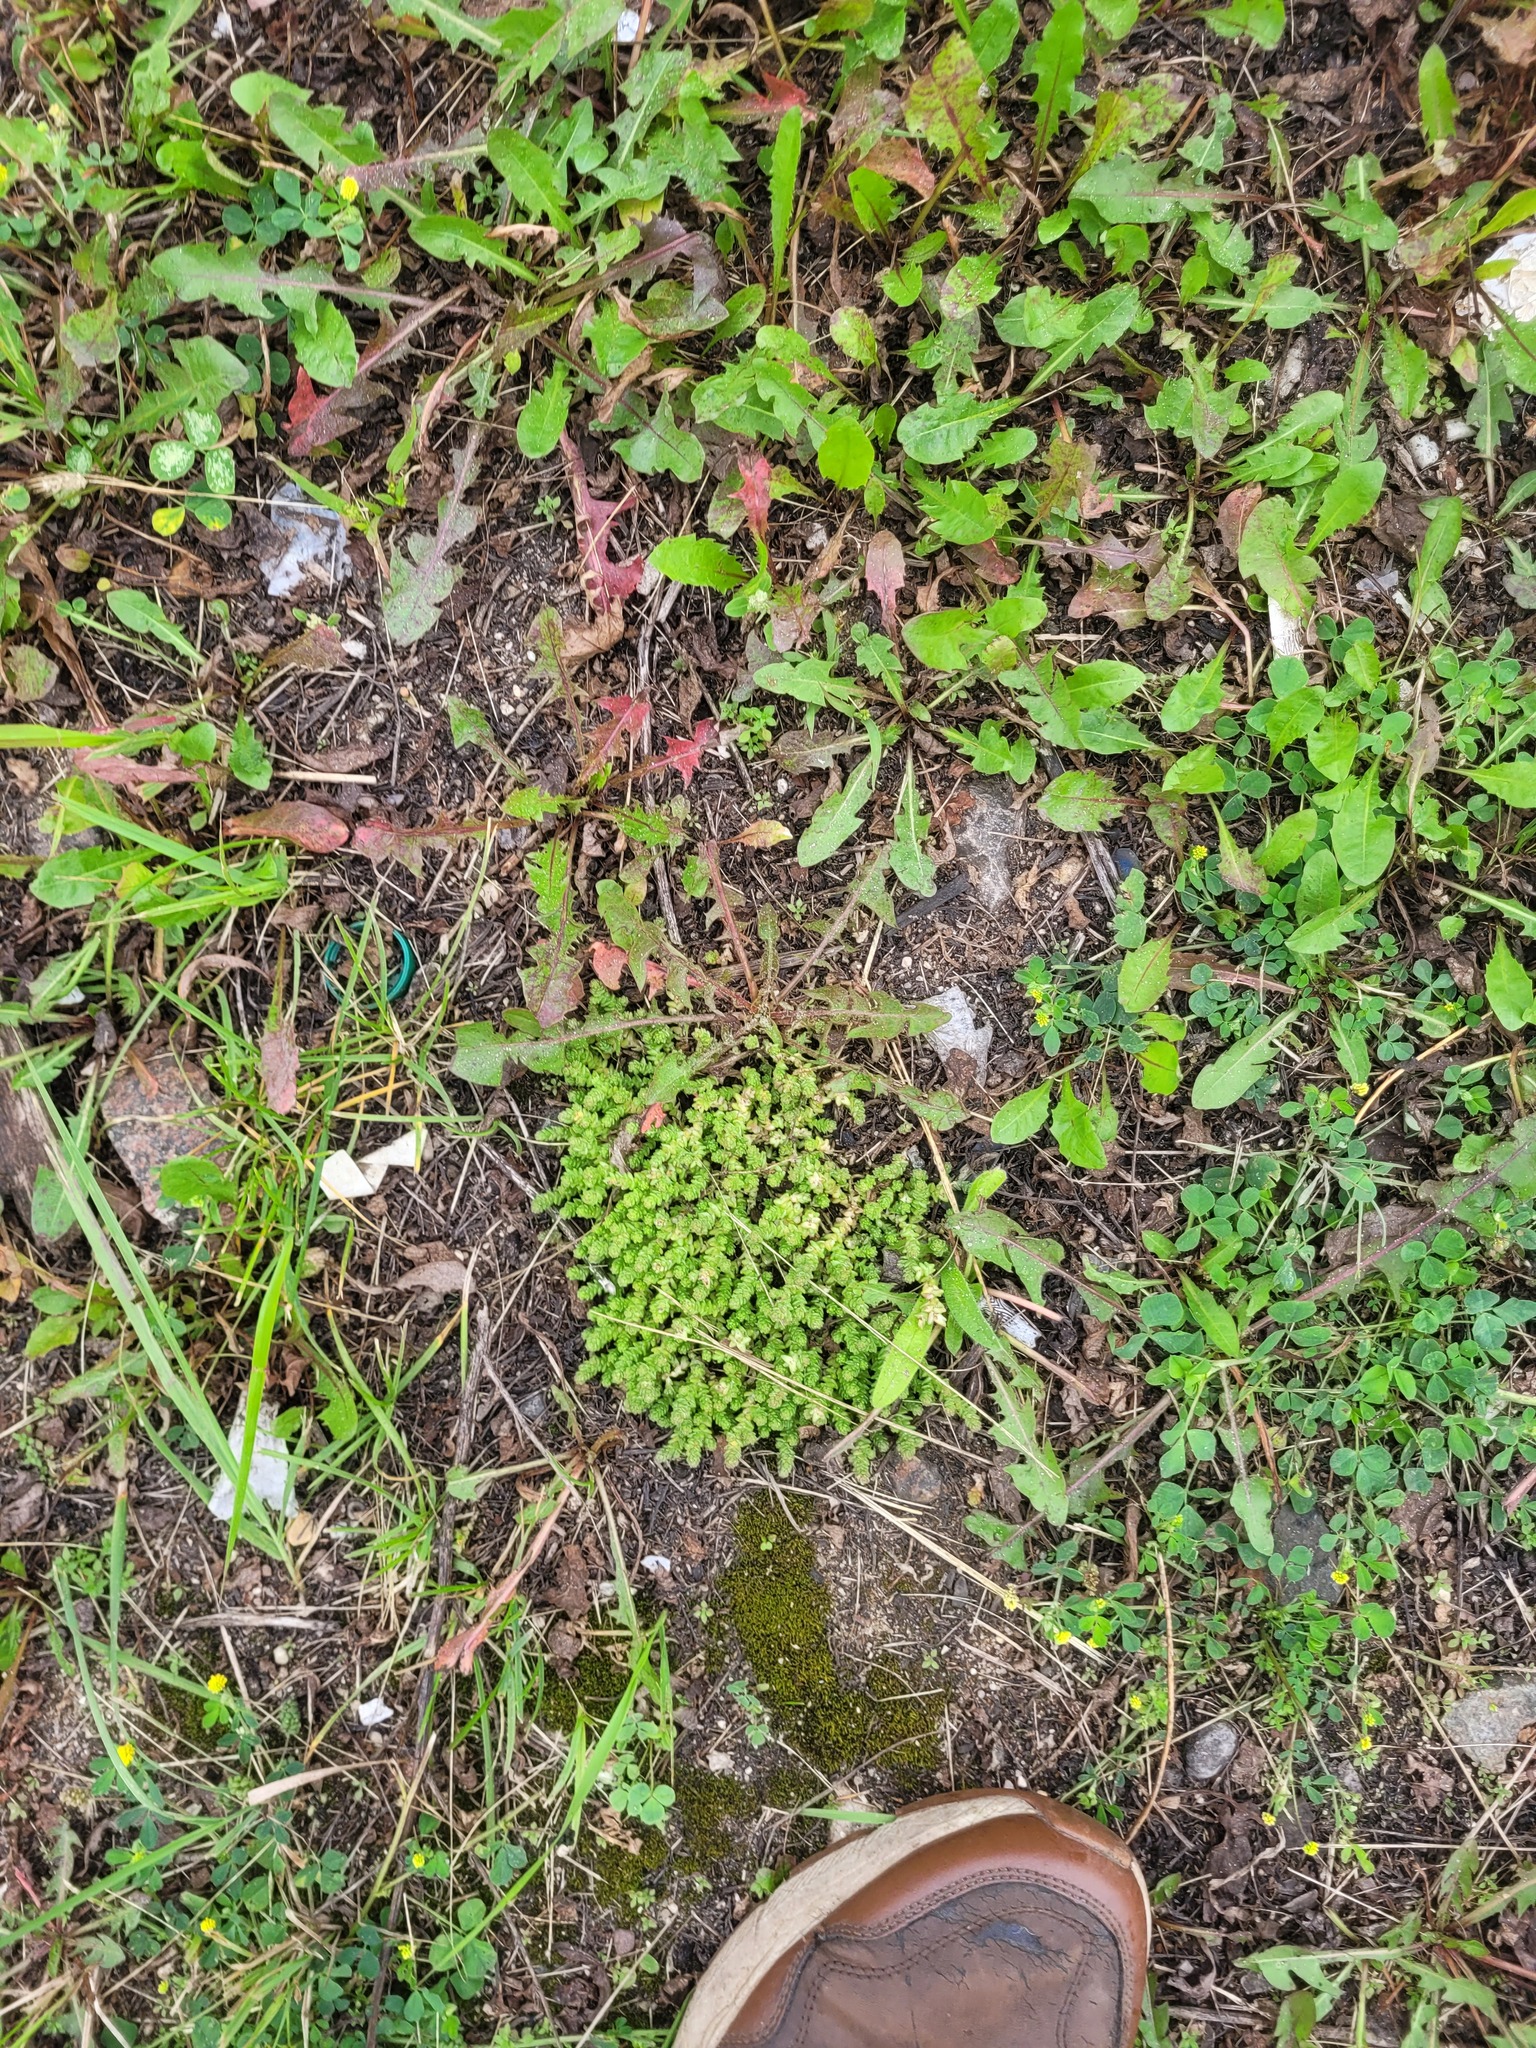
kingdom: Plantae
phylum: Tracheophyta
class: Magnoliopsida
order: Saxifragales
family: Crassulaceae
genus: Sedum
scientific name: Sedum acre
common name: Biting stonecrop
